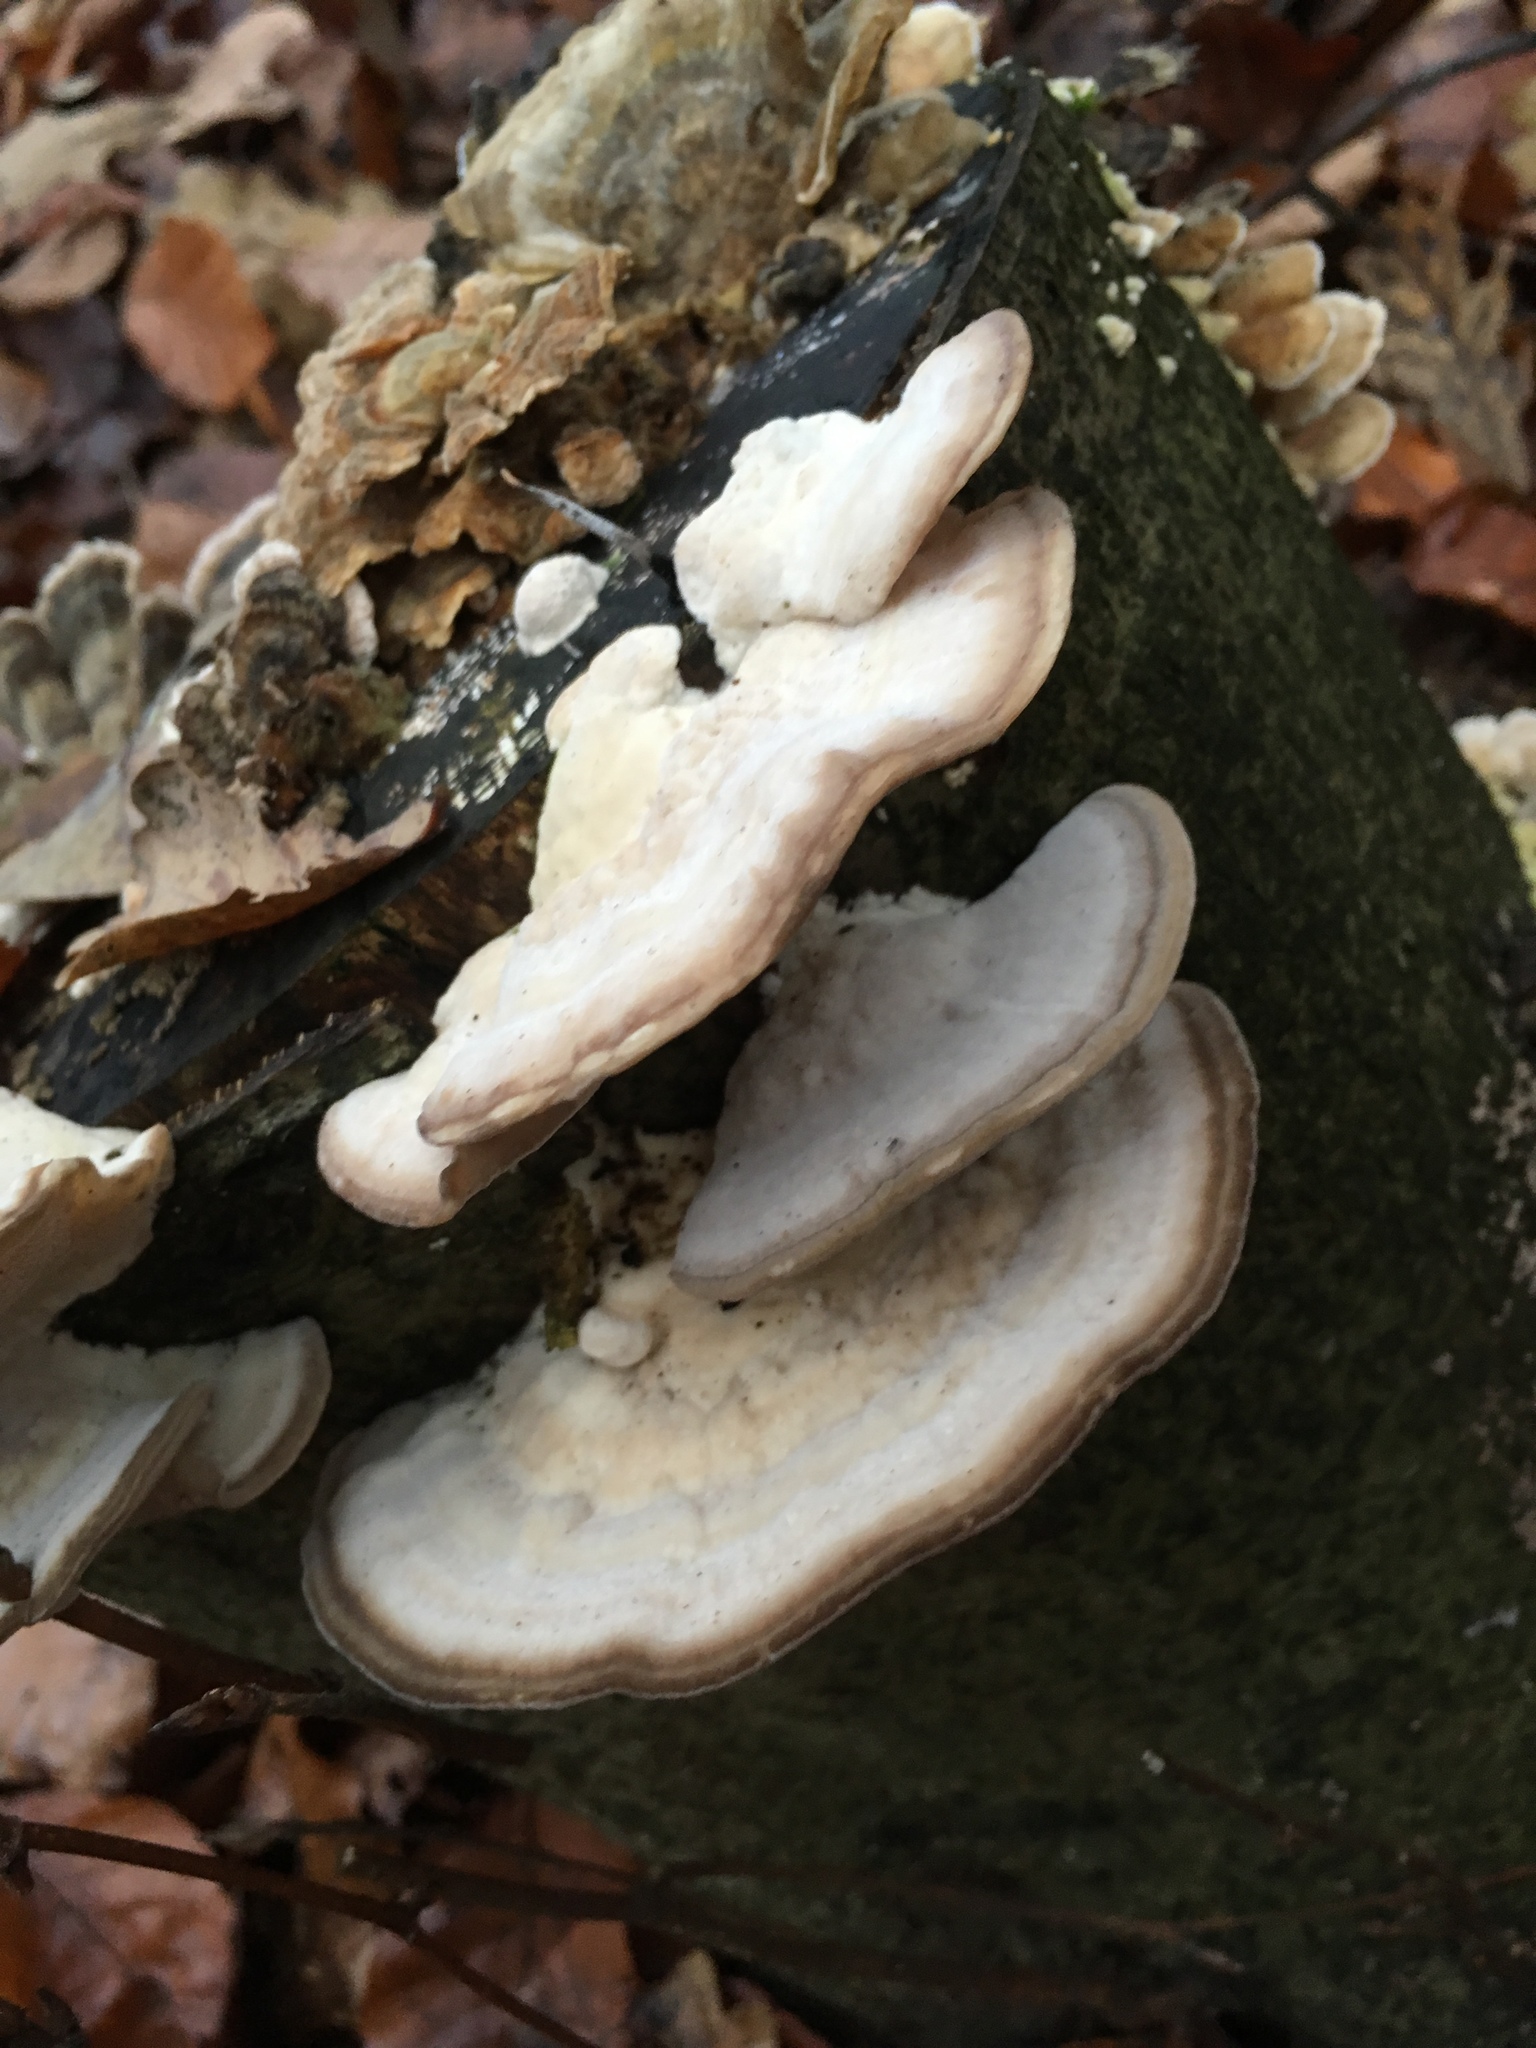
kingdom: Fungi
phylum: Basidiomycota
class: Agaricomycetes
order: Polyporales
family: Polyporaceae
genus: Trametes
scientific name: Trametes hirsuta
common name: Hairy bracket
